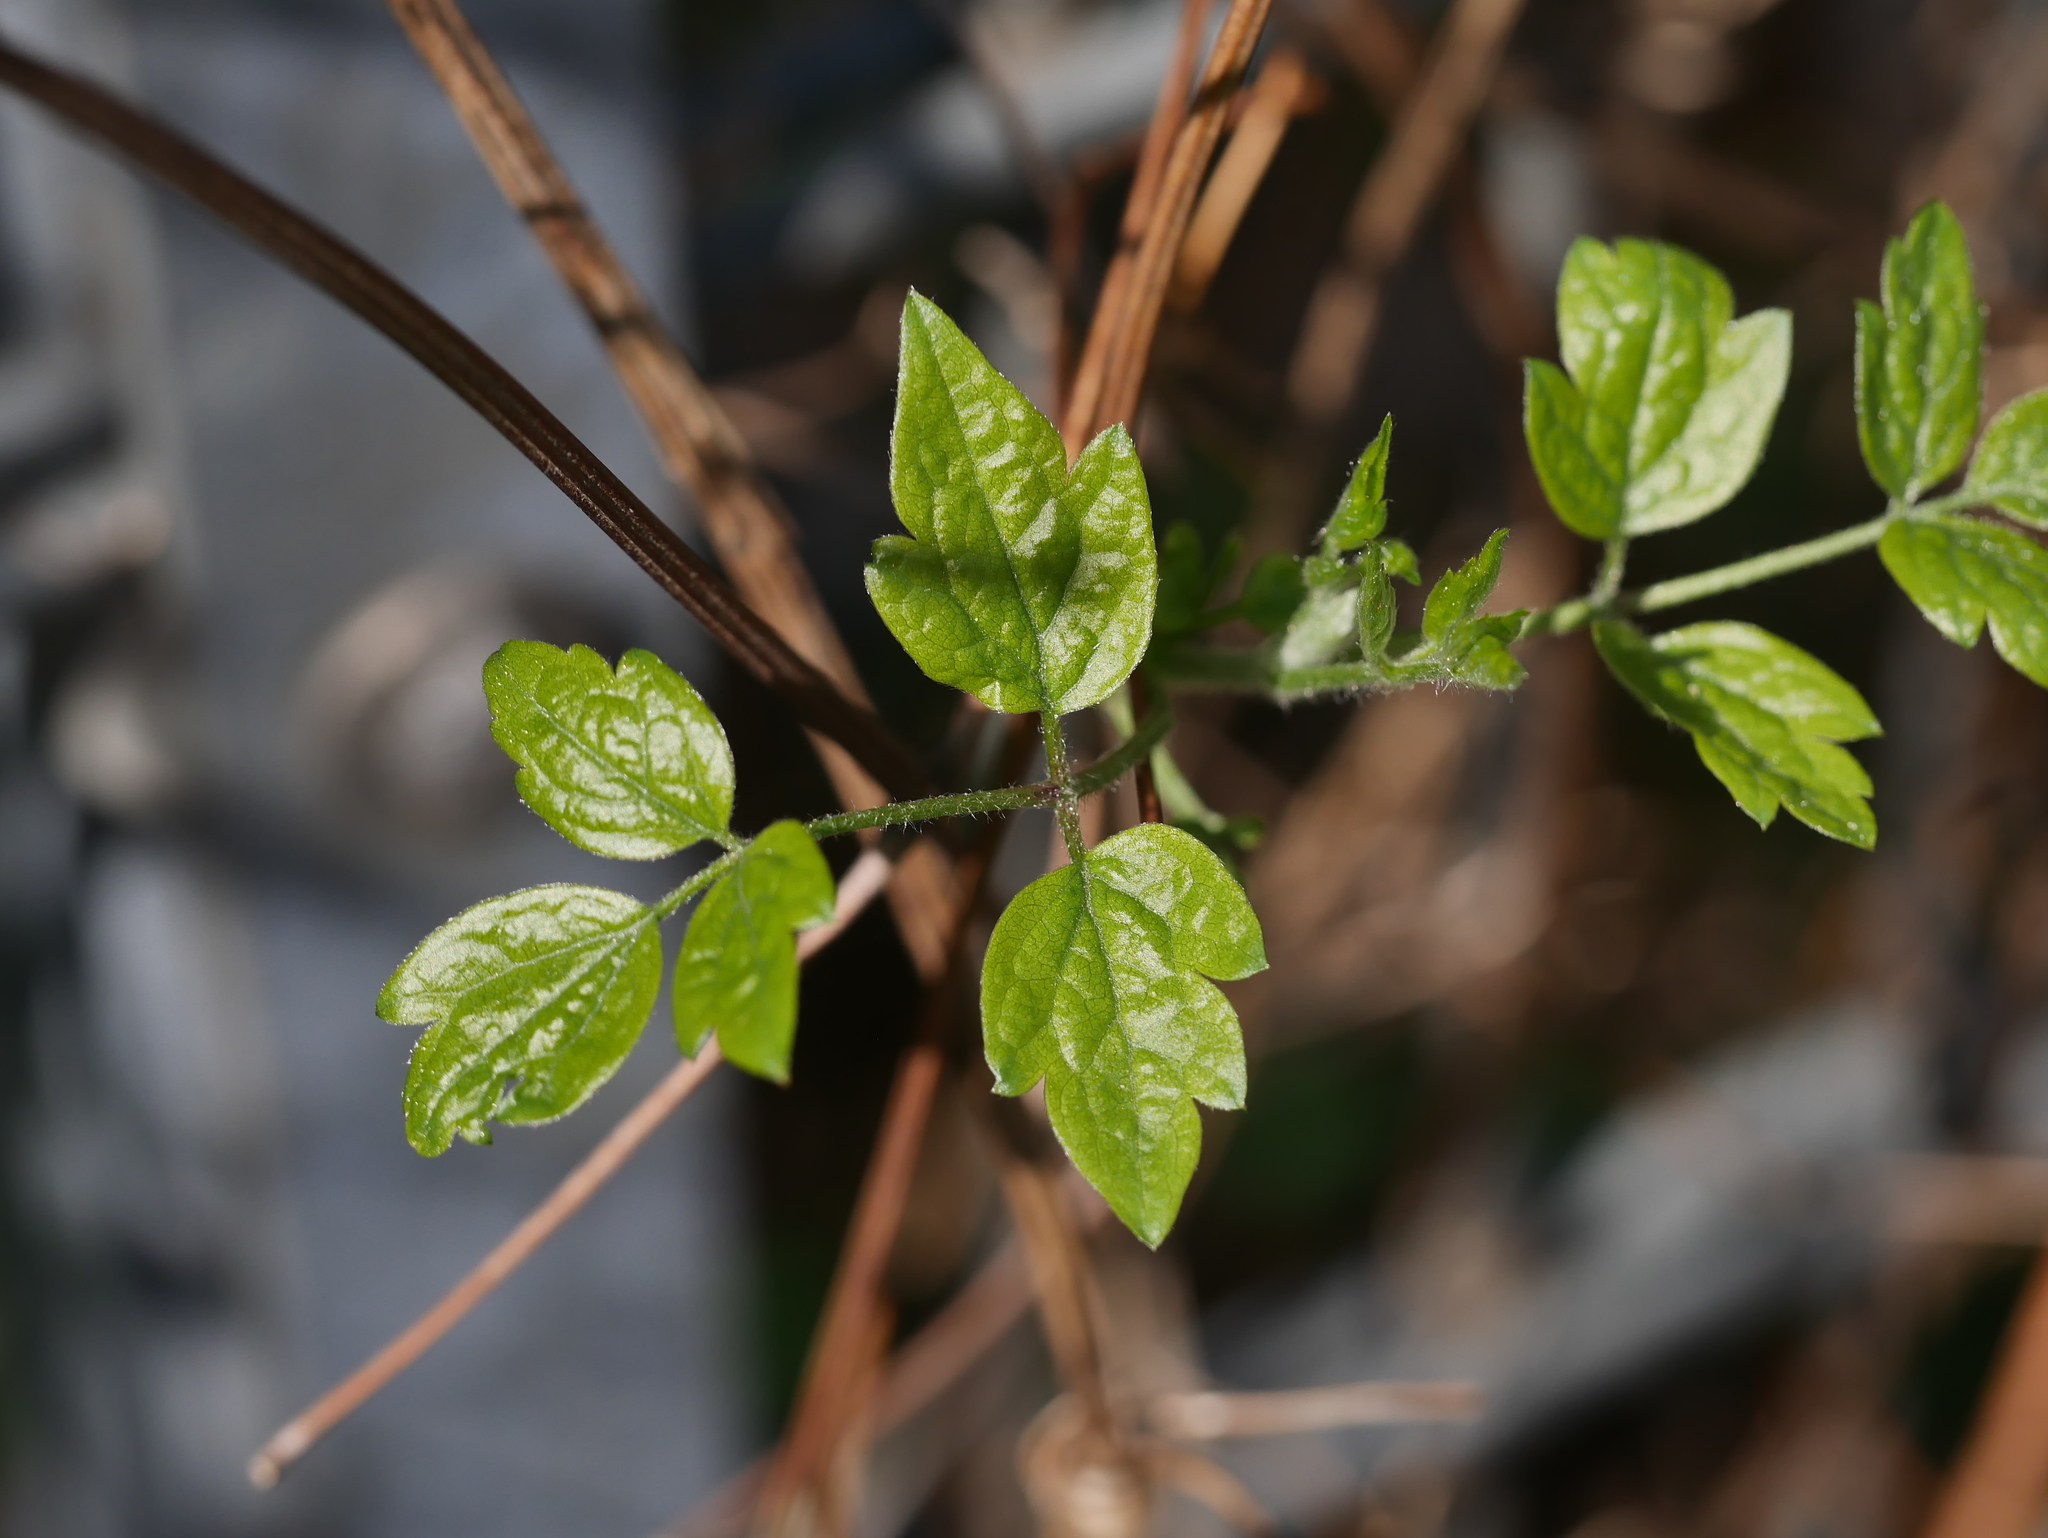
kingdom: Plantae
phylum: Tracheophyta
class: Magnoliopsida
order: Ranunculales
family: Ranunculaceae
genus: Clematis
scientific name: Clematis vitalba
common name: Evergreen clematis
